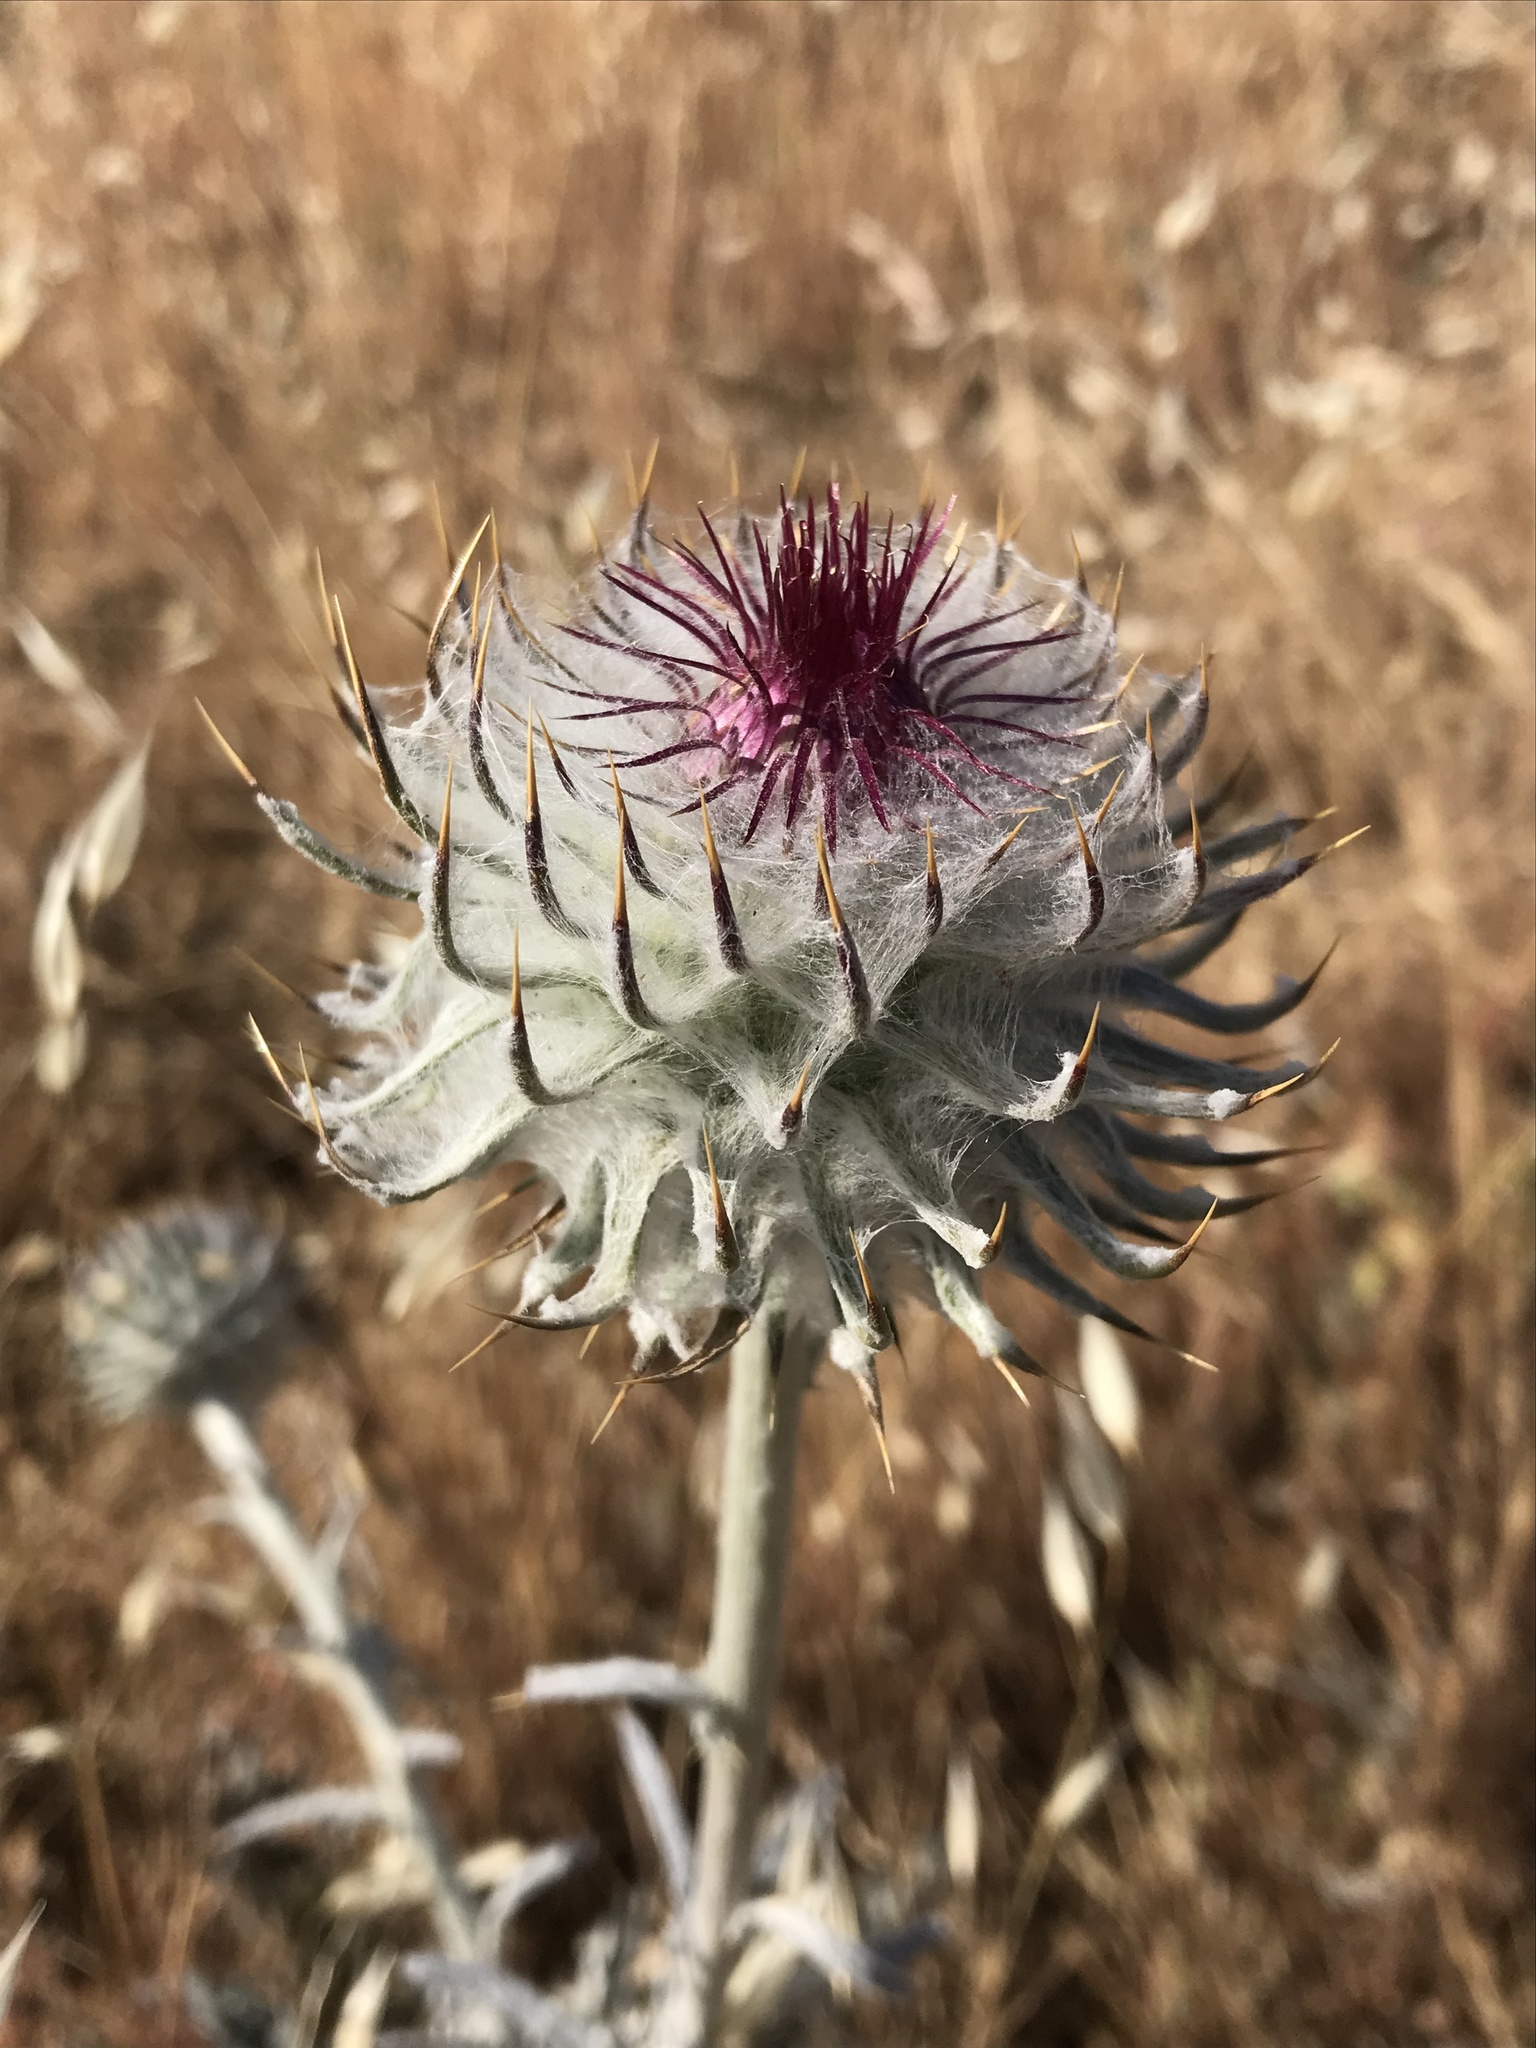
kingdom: Plantae
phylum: Tracheophyta
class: Magnoliopsida
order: Asterales
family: Asteraceae
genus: Cirsium
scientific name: Cirsium occidentale
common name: Western thistle
